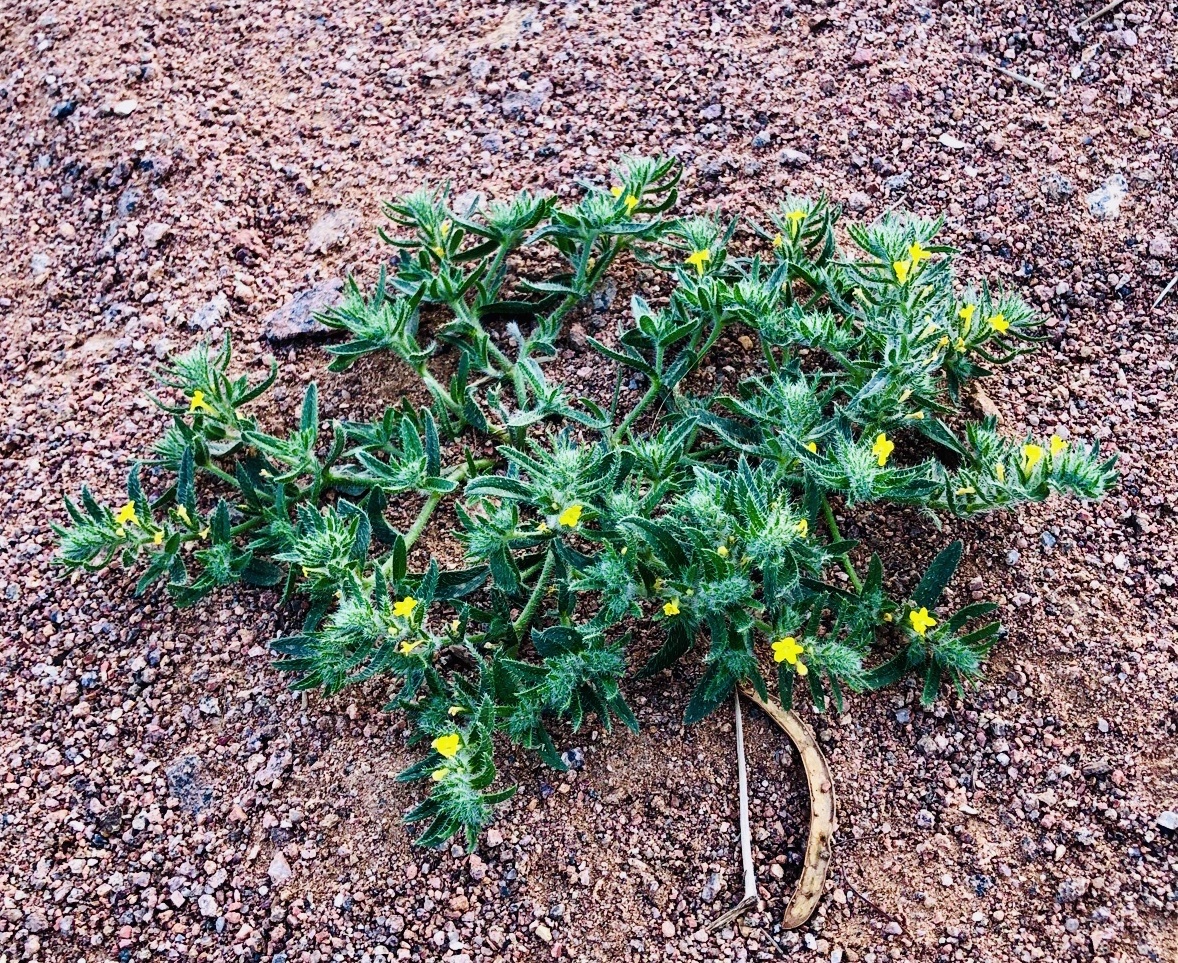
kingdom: Plantae
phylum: Tracheophyta
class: Magnoliopsida
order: Boraginales
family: Boraginaceae
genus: Arnebia
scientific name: Arnebia hispidissima
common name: Arabian-primrose
